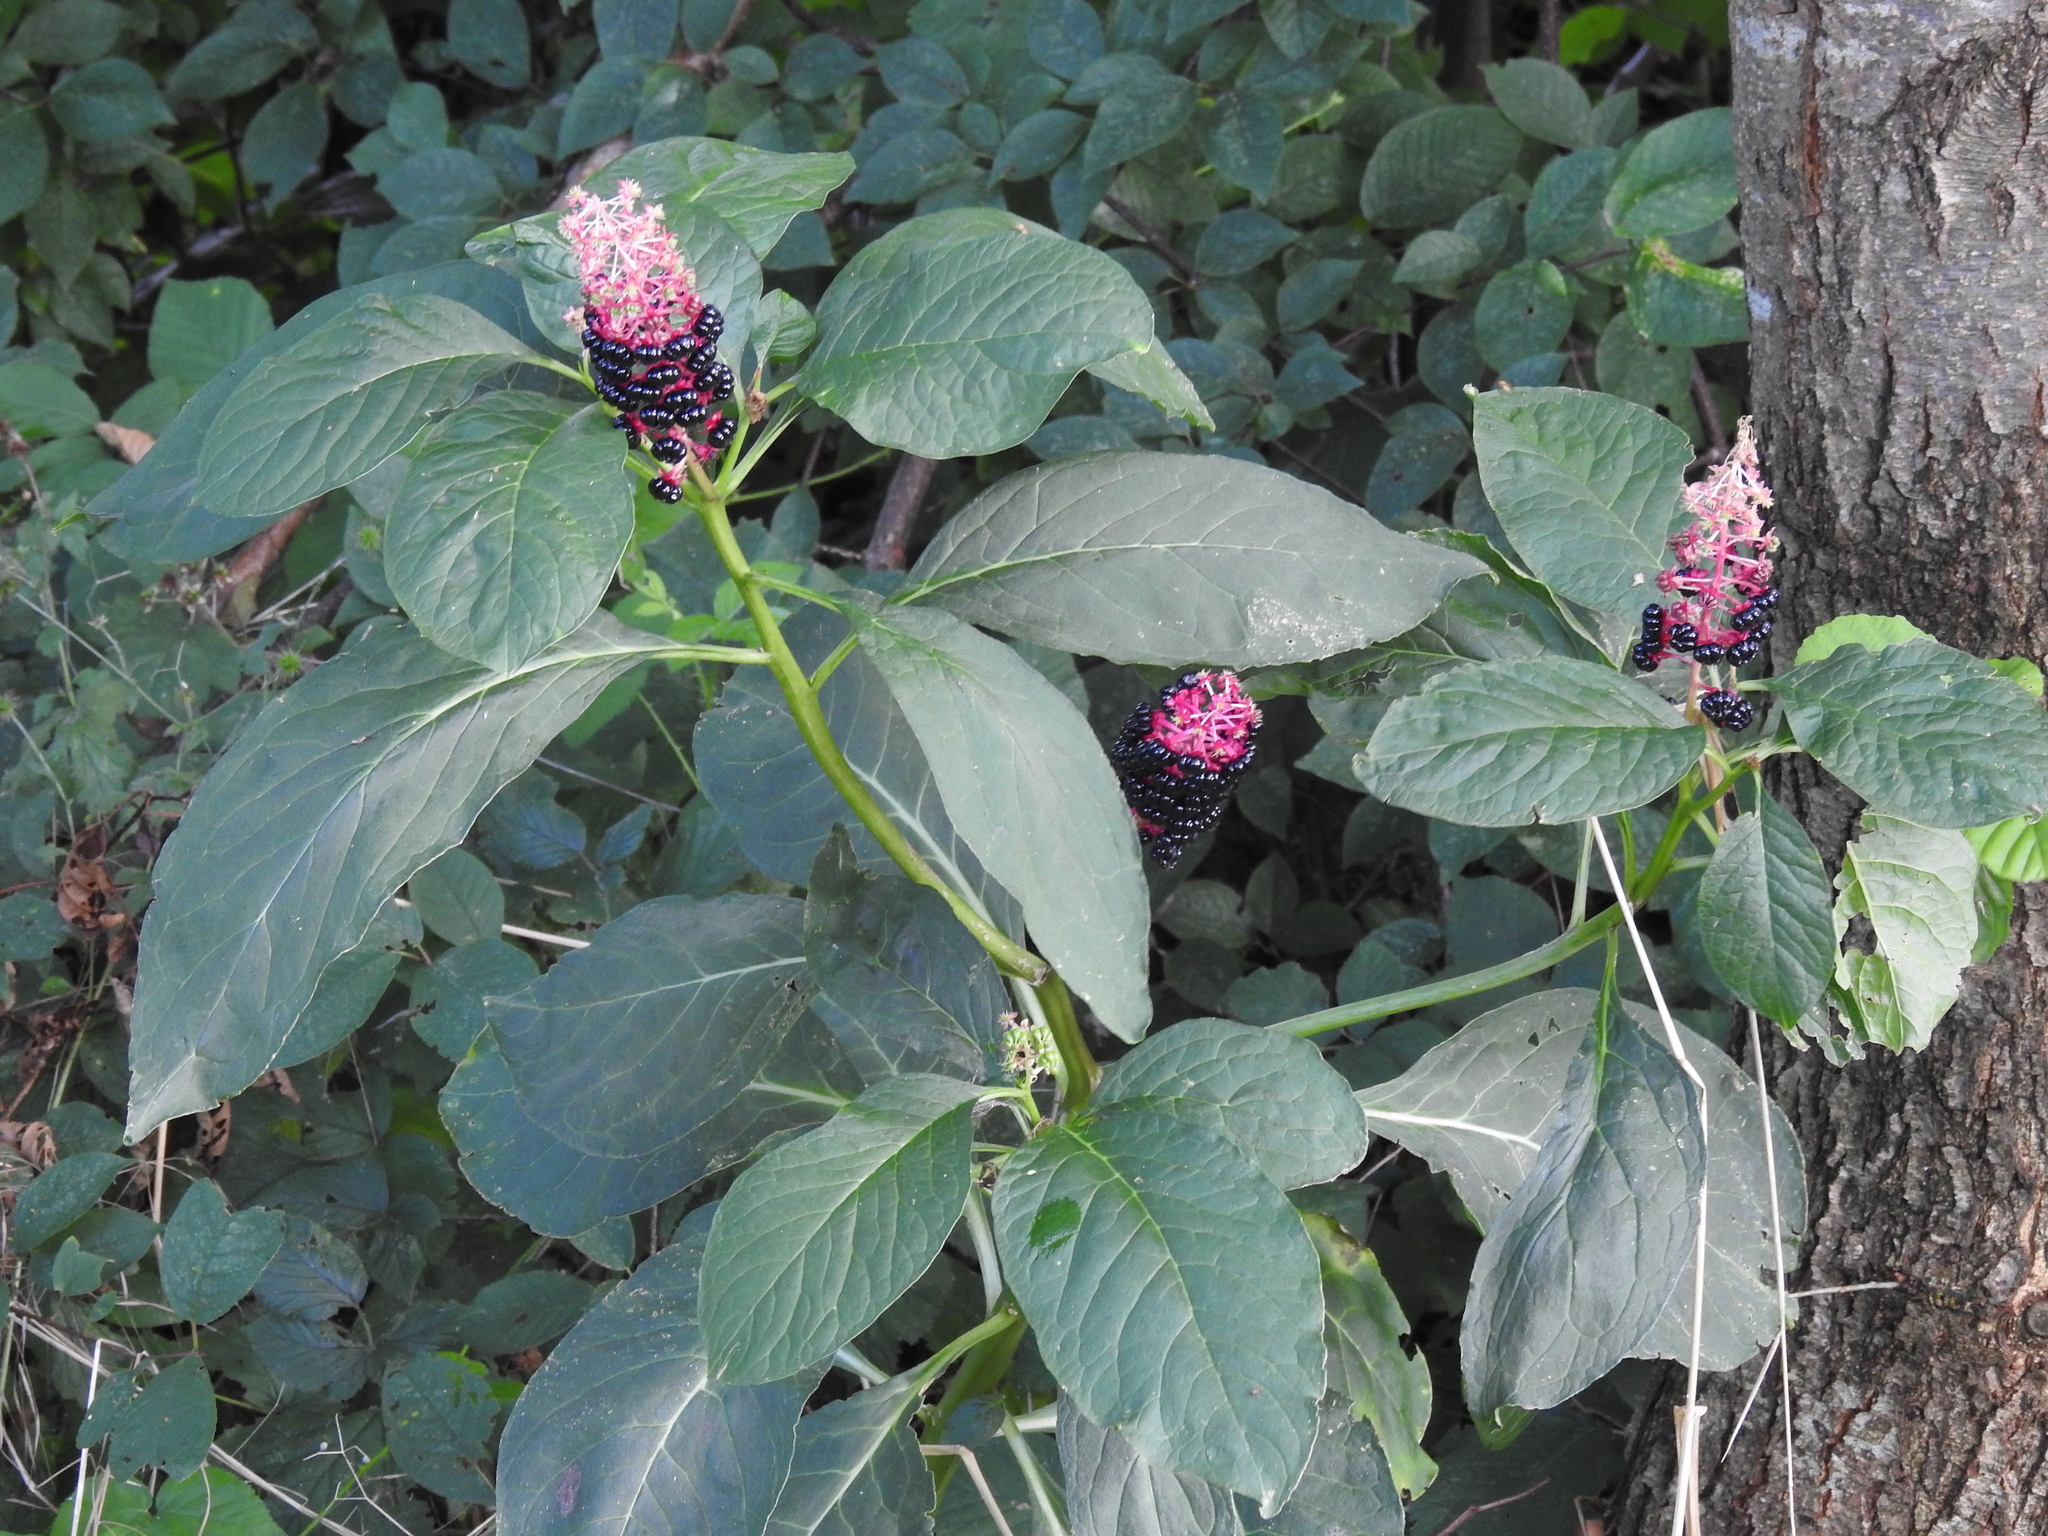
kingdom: Plantae
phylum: Tracheophyta
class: Magnoliopsida
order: Caryophyllales
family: Phytolaccaceae
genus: Phytolacca
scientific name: Phytolacca acinosa
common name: Indian pokeweed
